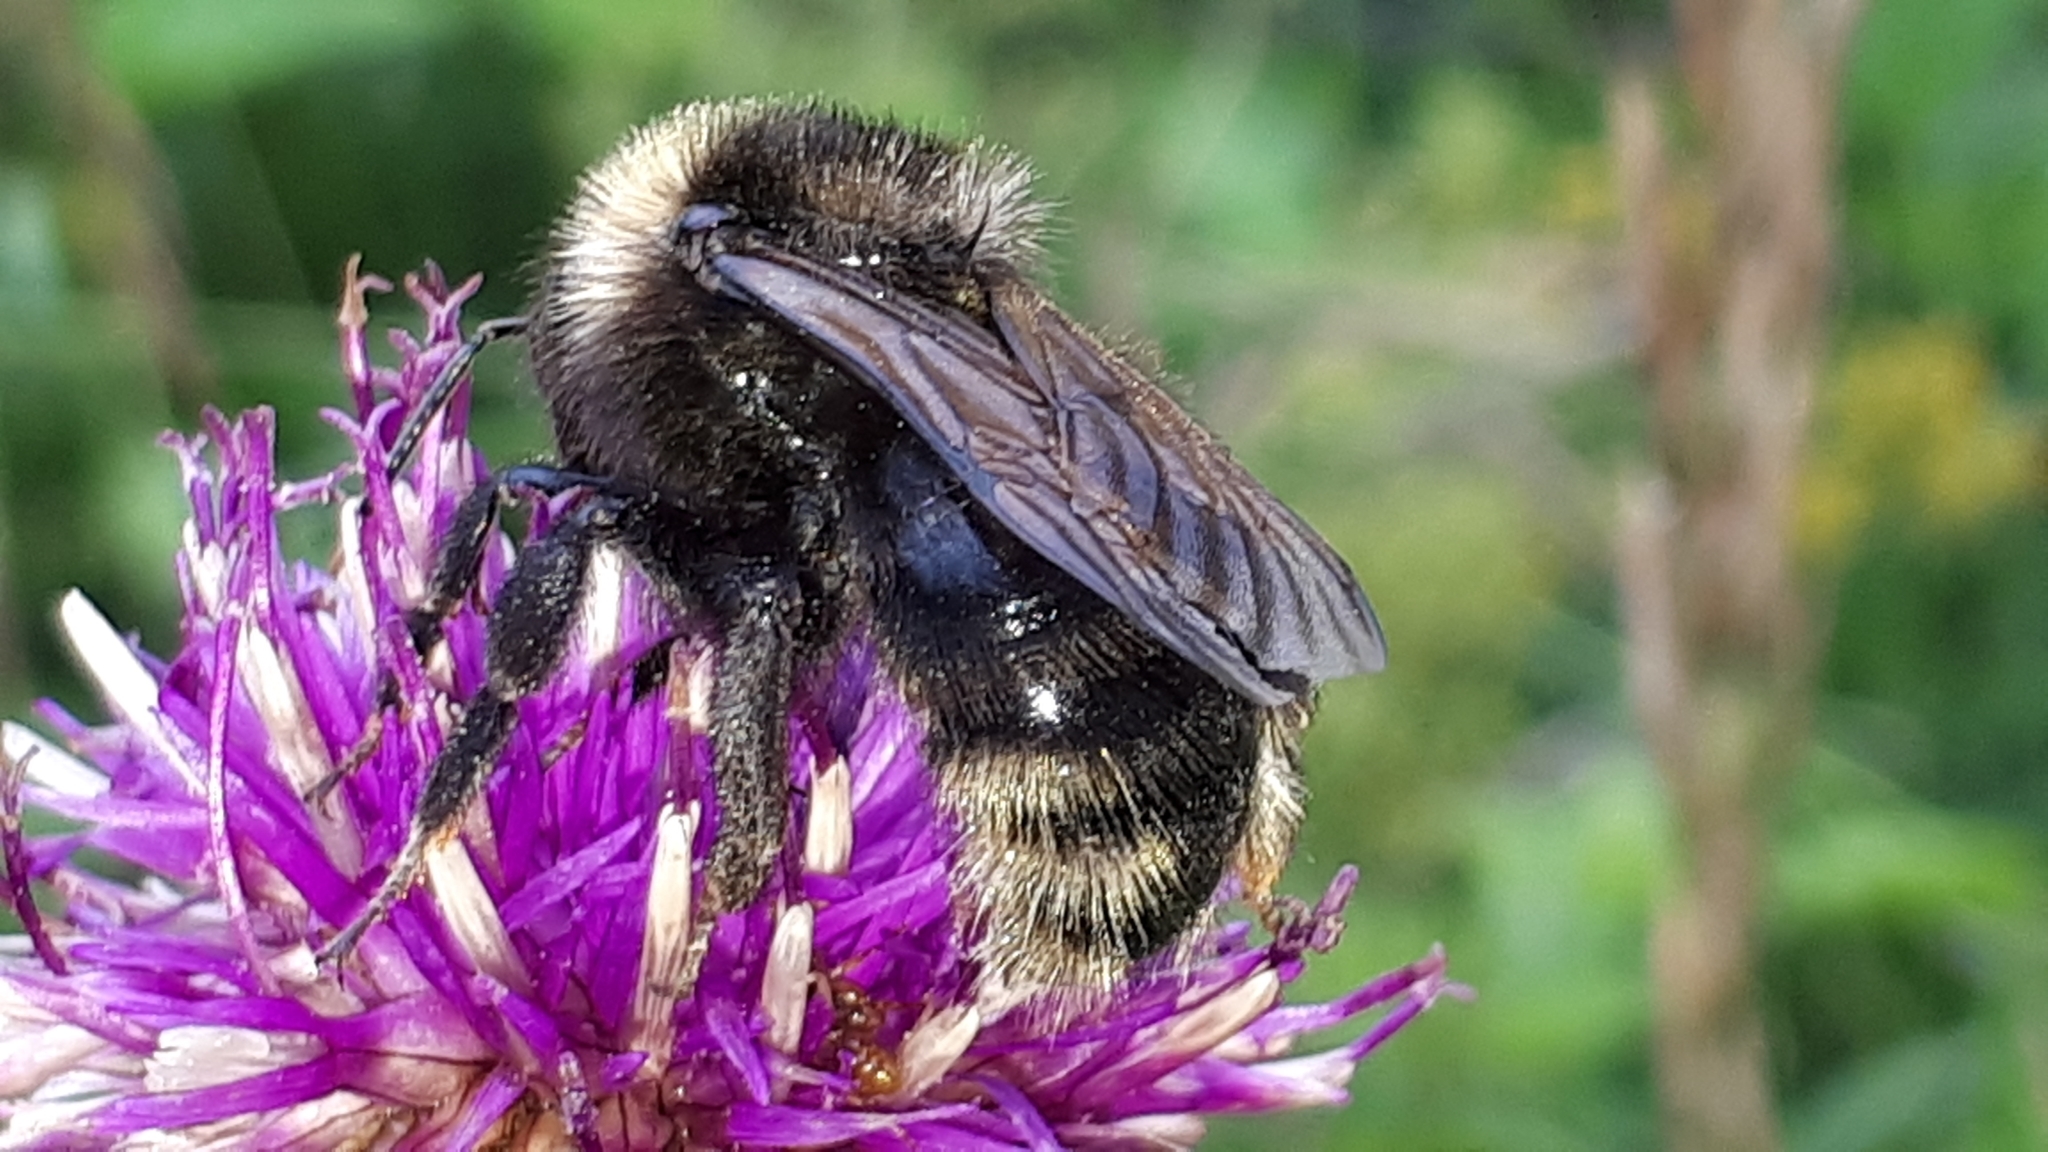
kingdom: Animalia
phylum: Arthropoda
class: Insecta
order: Hymenoptera
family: Apidae
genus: Bombus
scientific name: Bombus campestris
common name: Field cuckoo-bee
